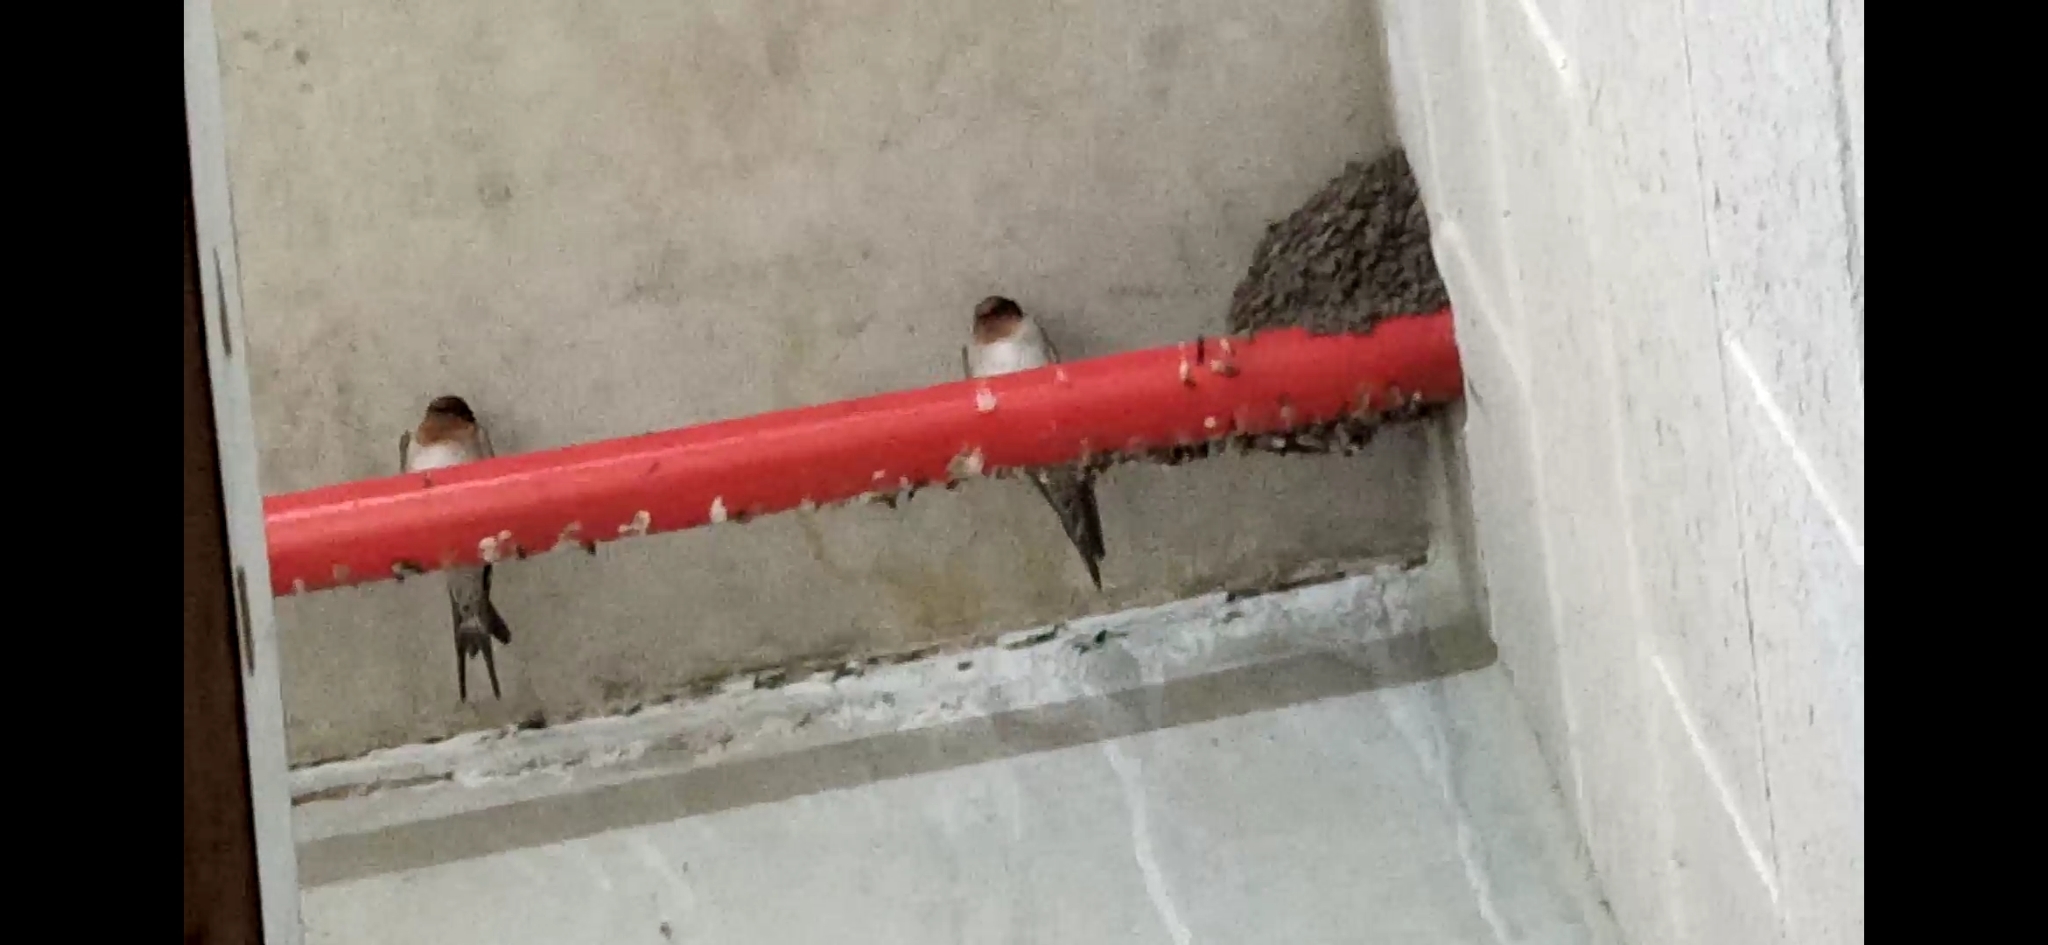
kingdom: Animalia
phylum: Chordata
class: Aves
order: Passeriformes
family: Hirundinidae
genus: Hirundo
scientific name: Hirundo neoxena
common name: Welcome swallow
